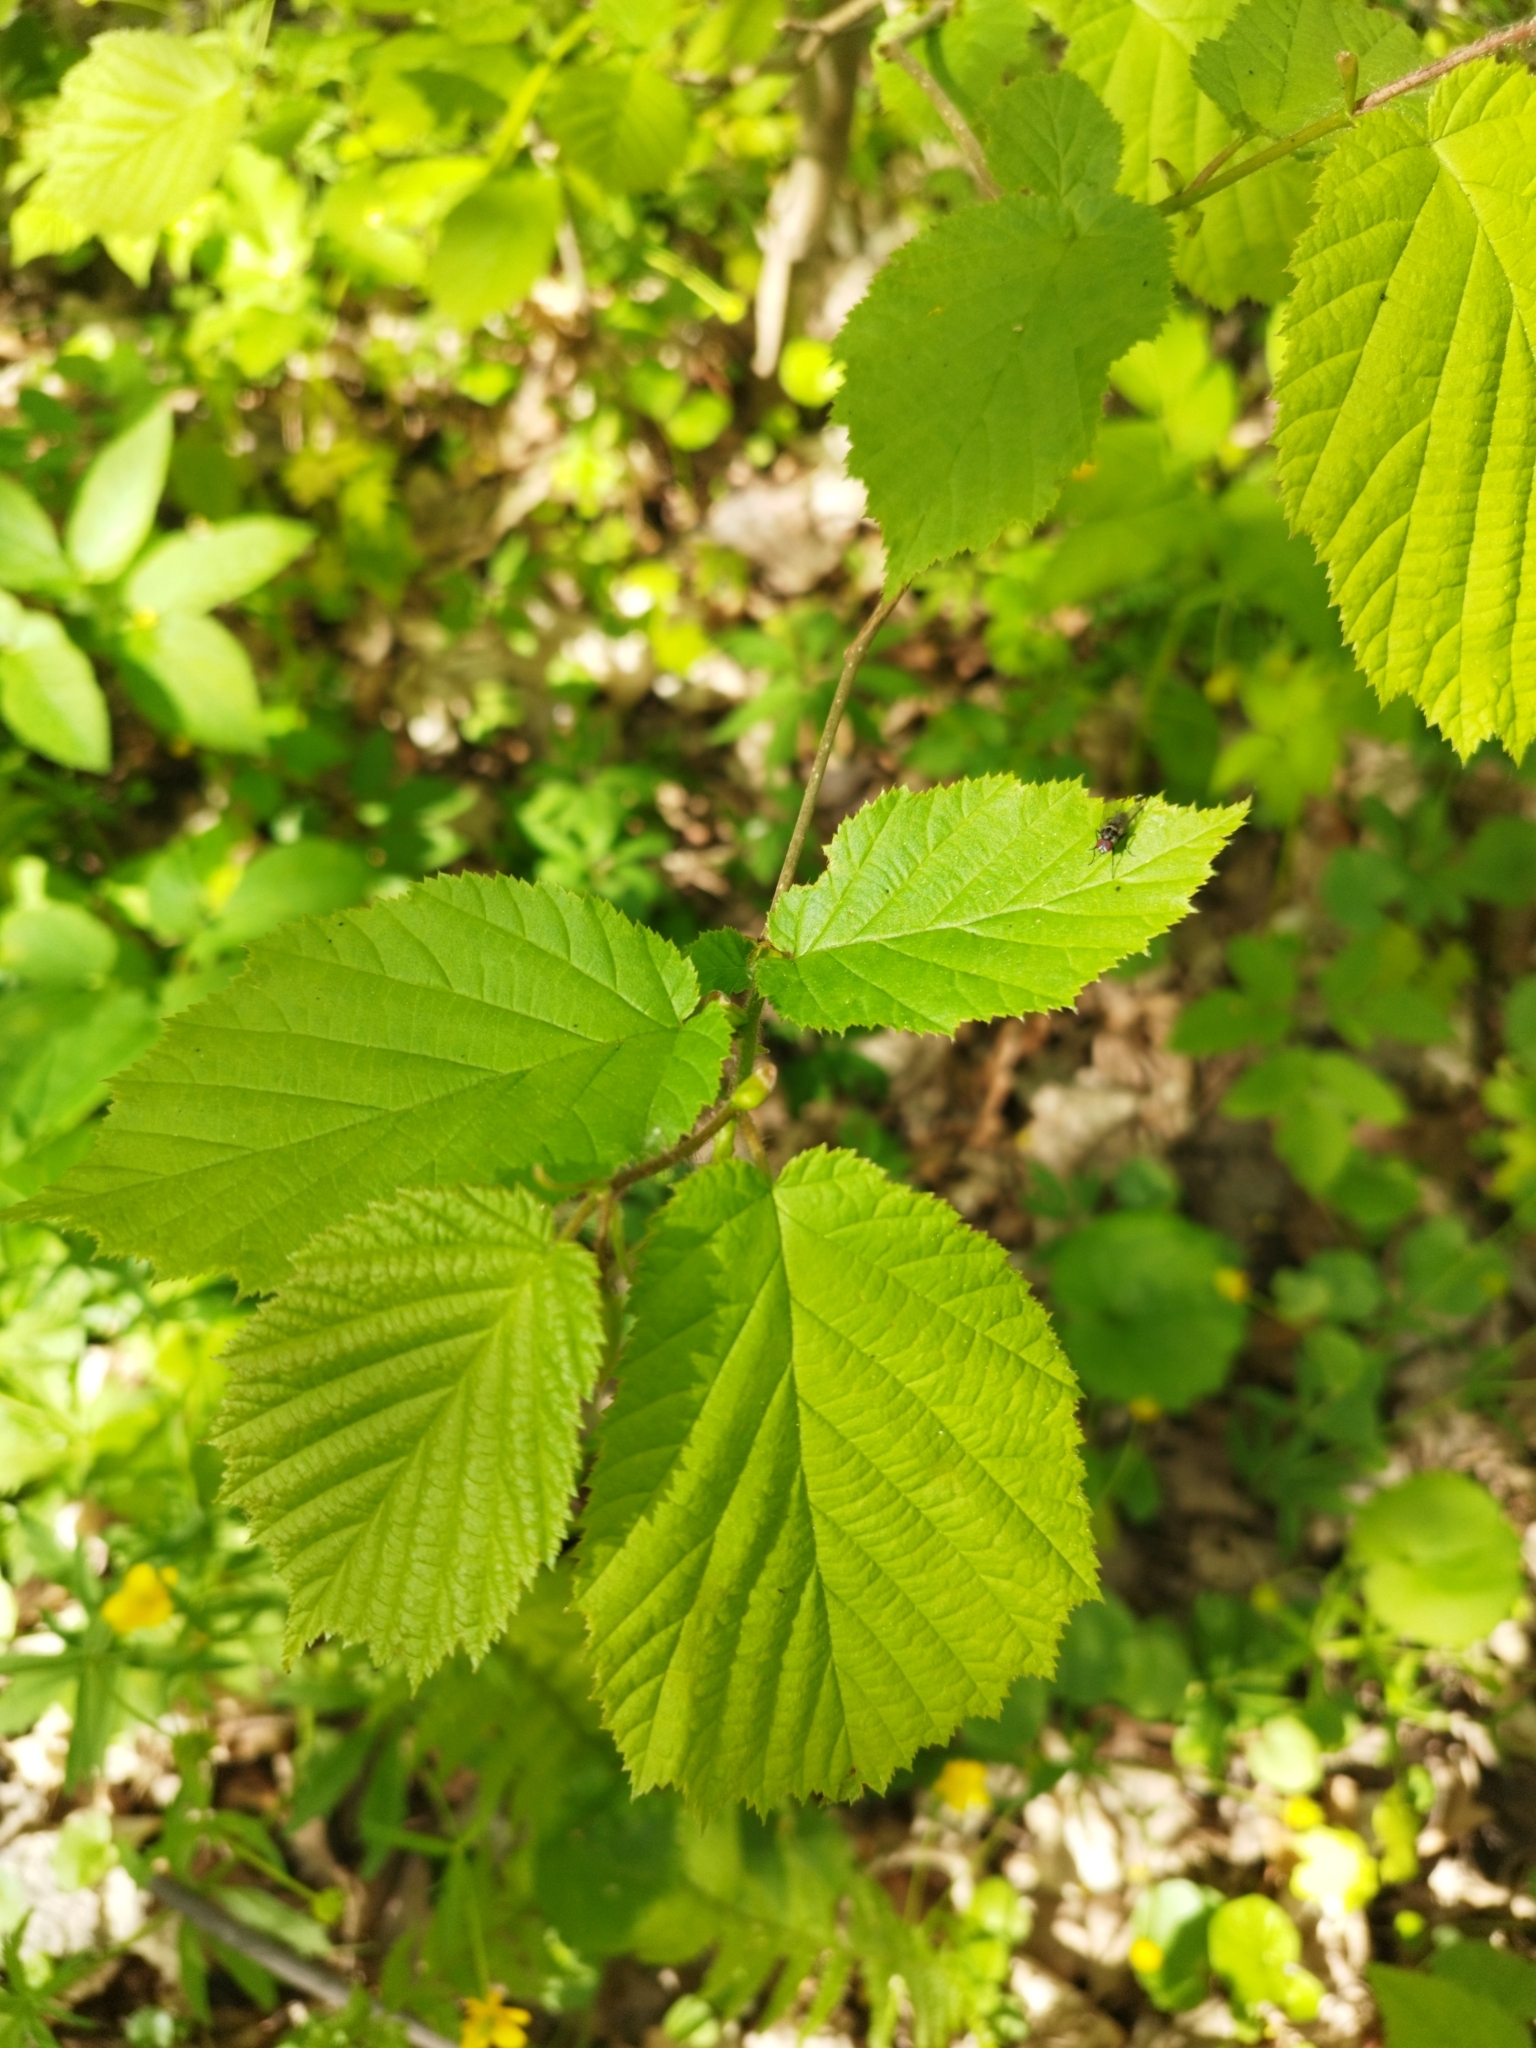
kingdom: Plantae
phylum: Tracheophyta
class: Magnoliopsida
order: Fagales
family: Betulaceae
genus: Corylus
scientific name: Corylus avellana
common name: European hazel
